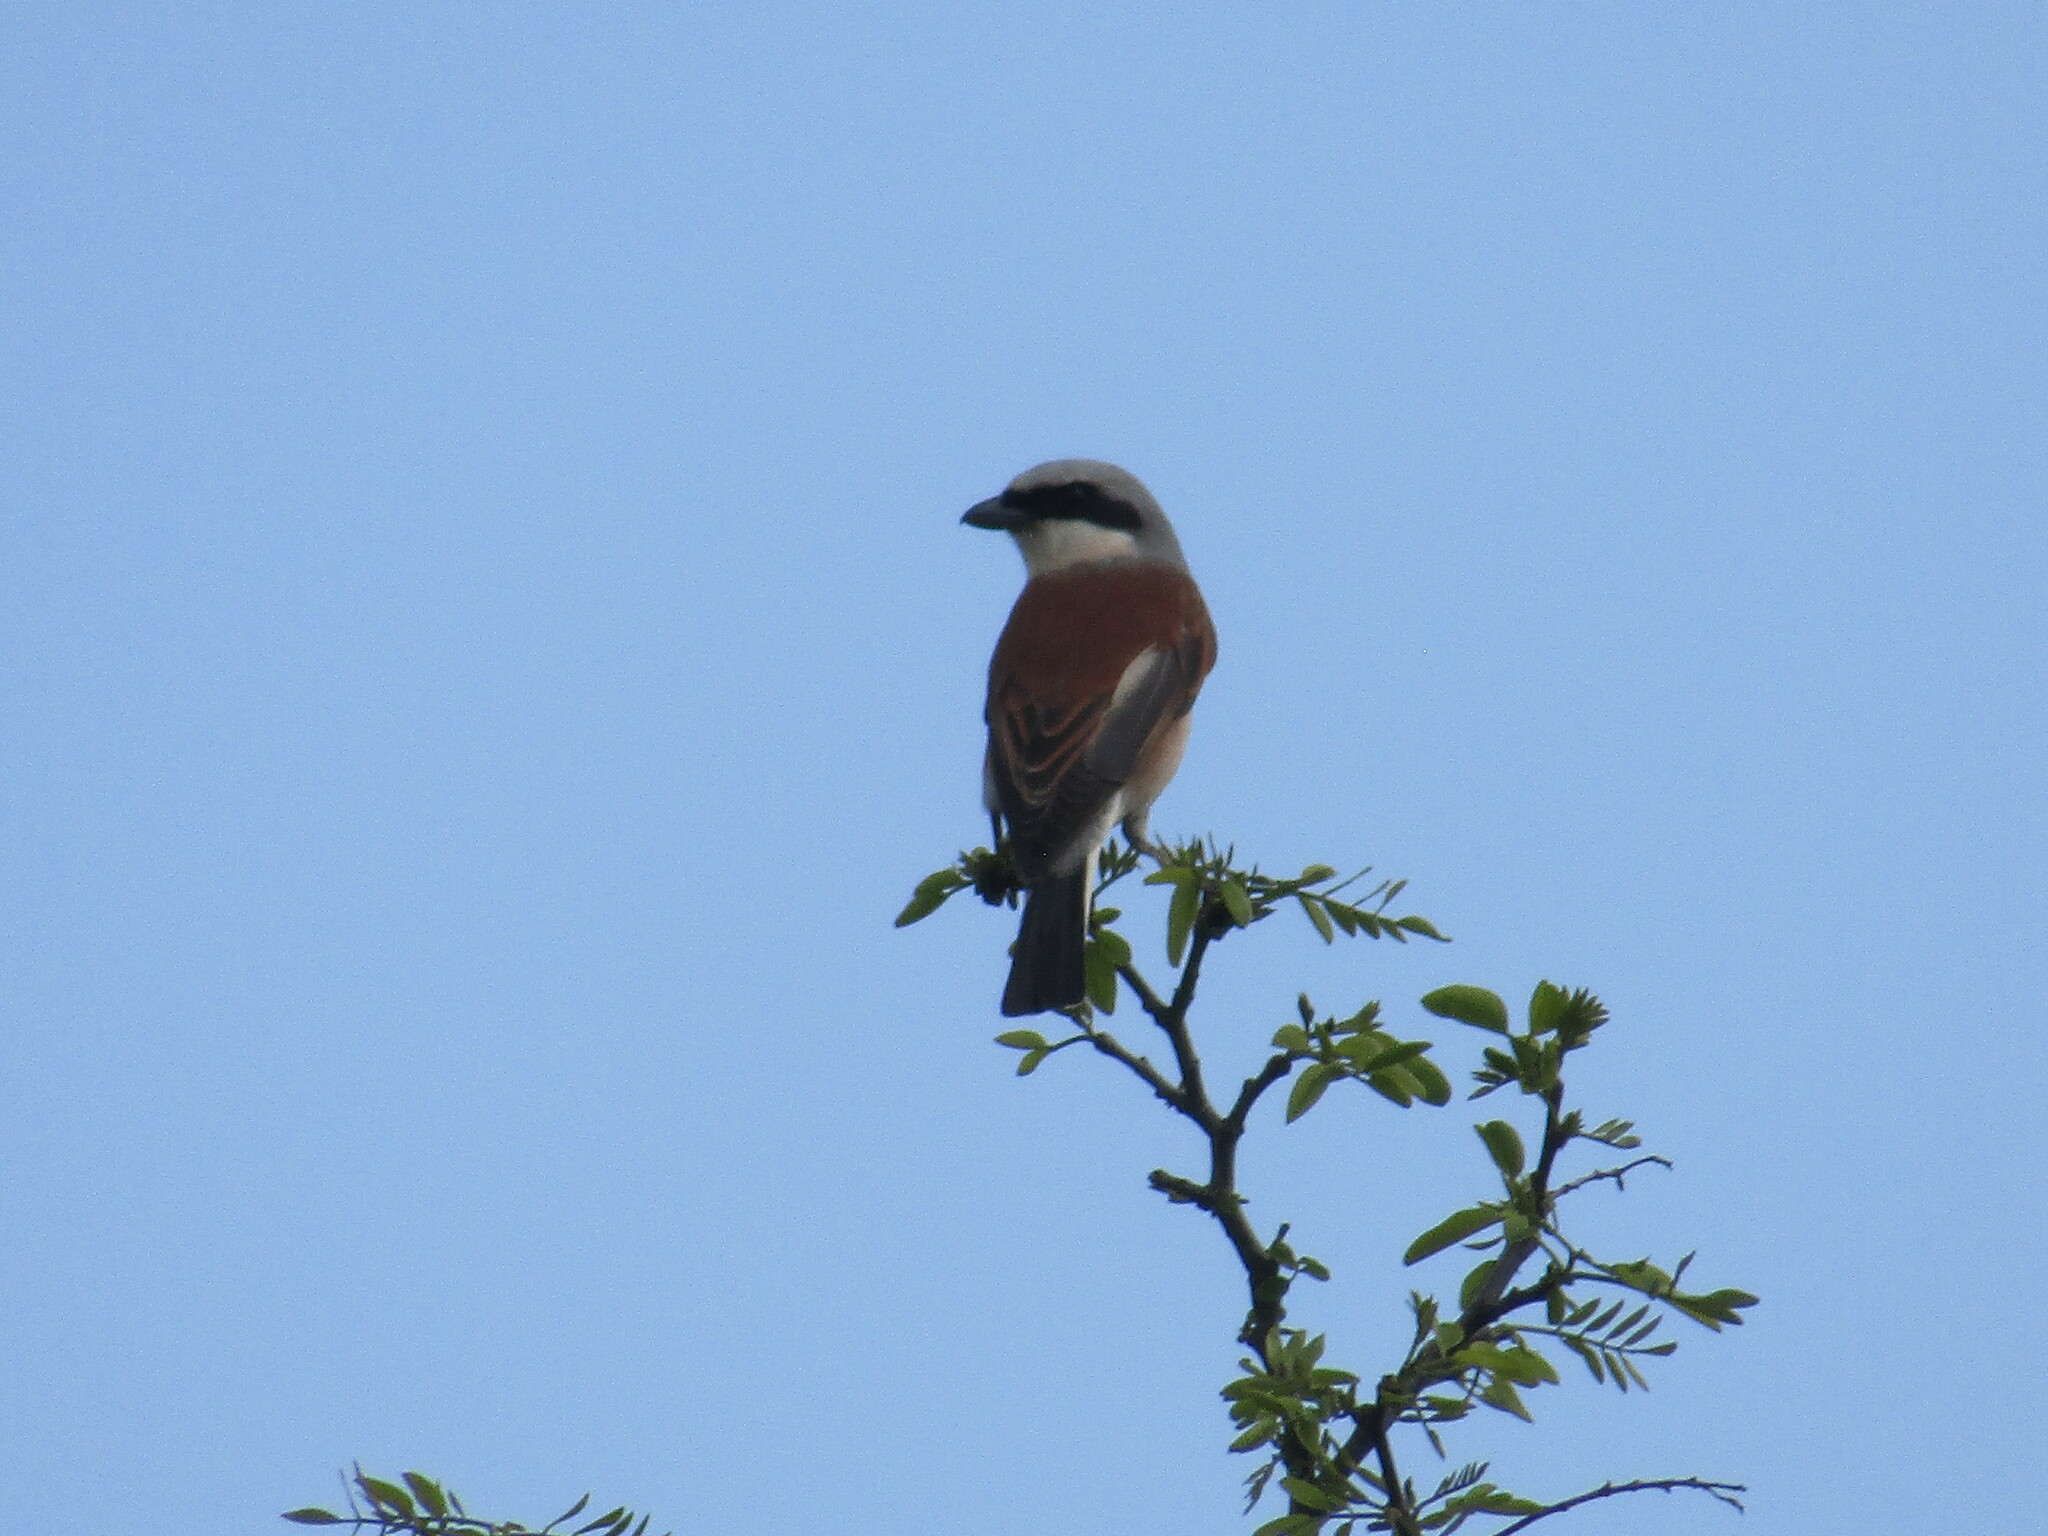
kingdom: Animalia
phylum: Chordata
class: Aves
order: Passeriformes
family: Laniidae
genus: Lanius
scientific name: Lanius collurio
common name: Red-backed shrike
